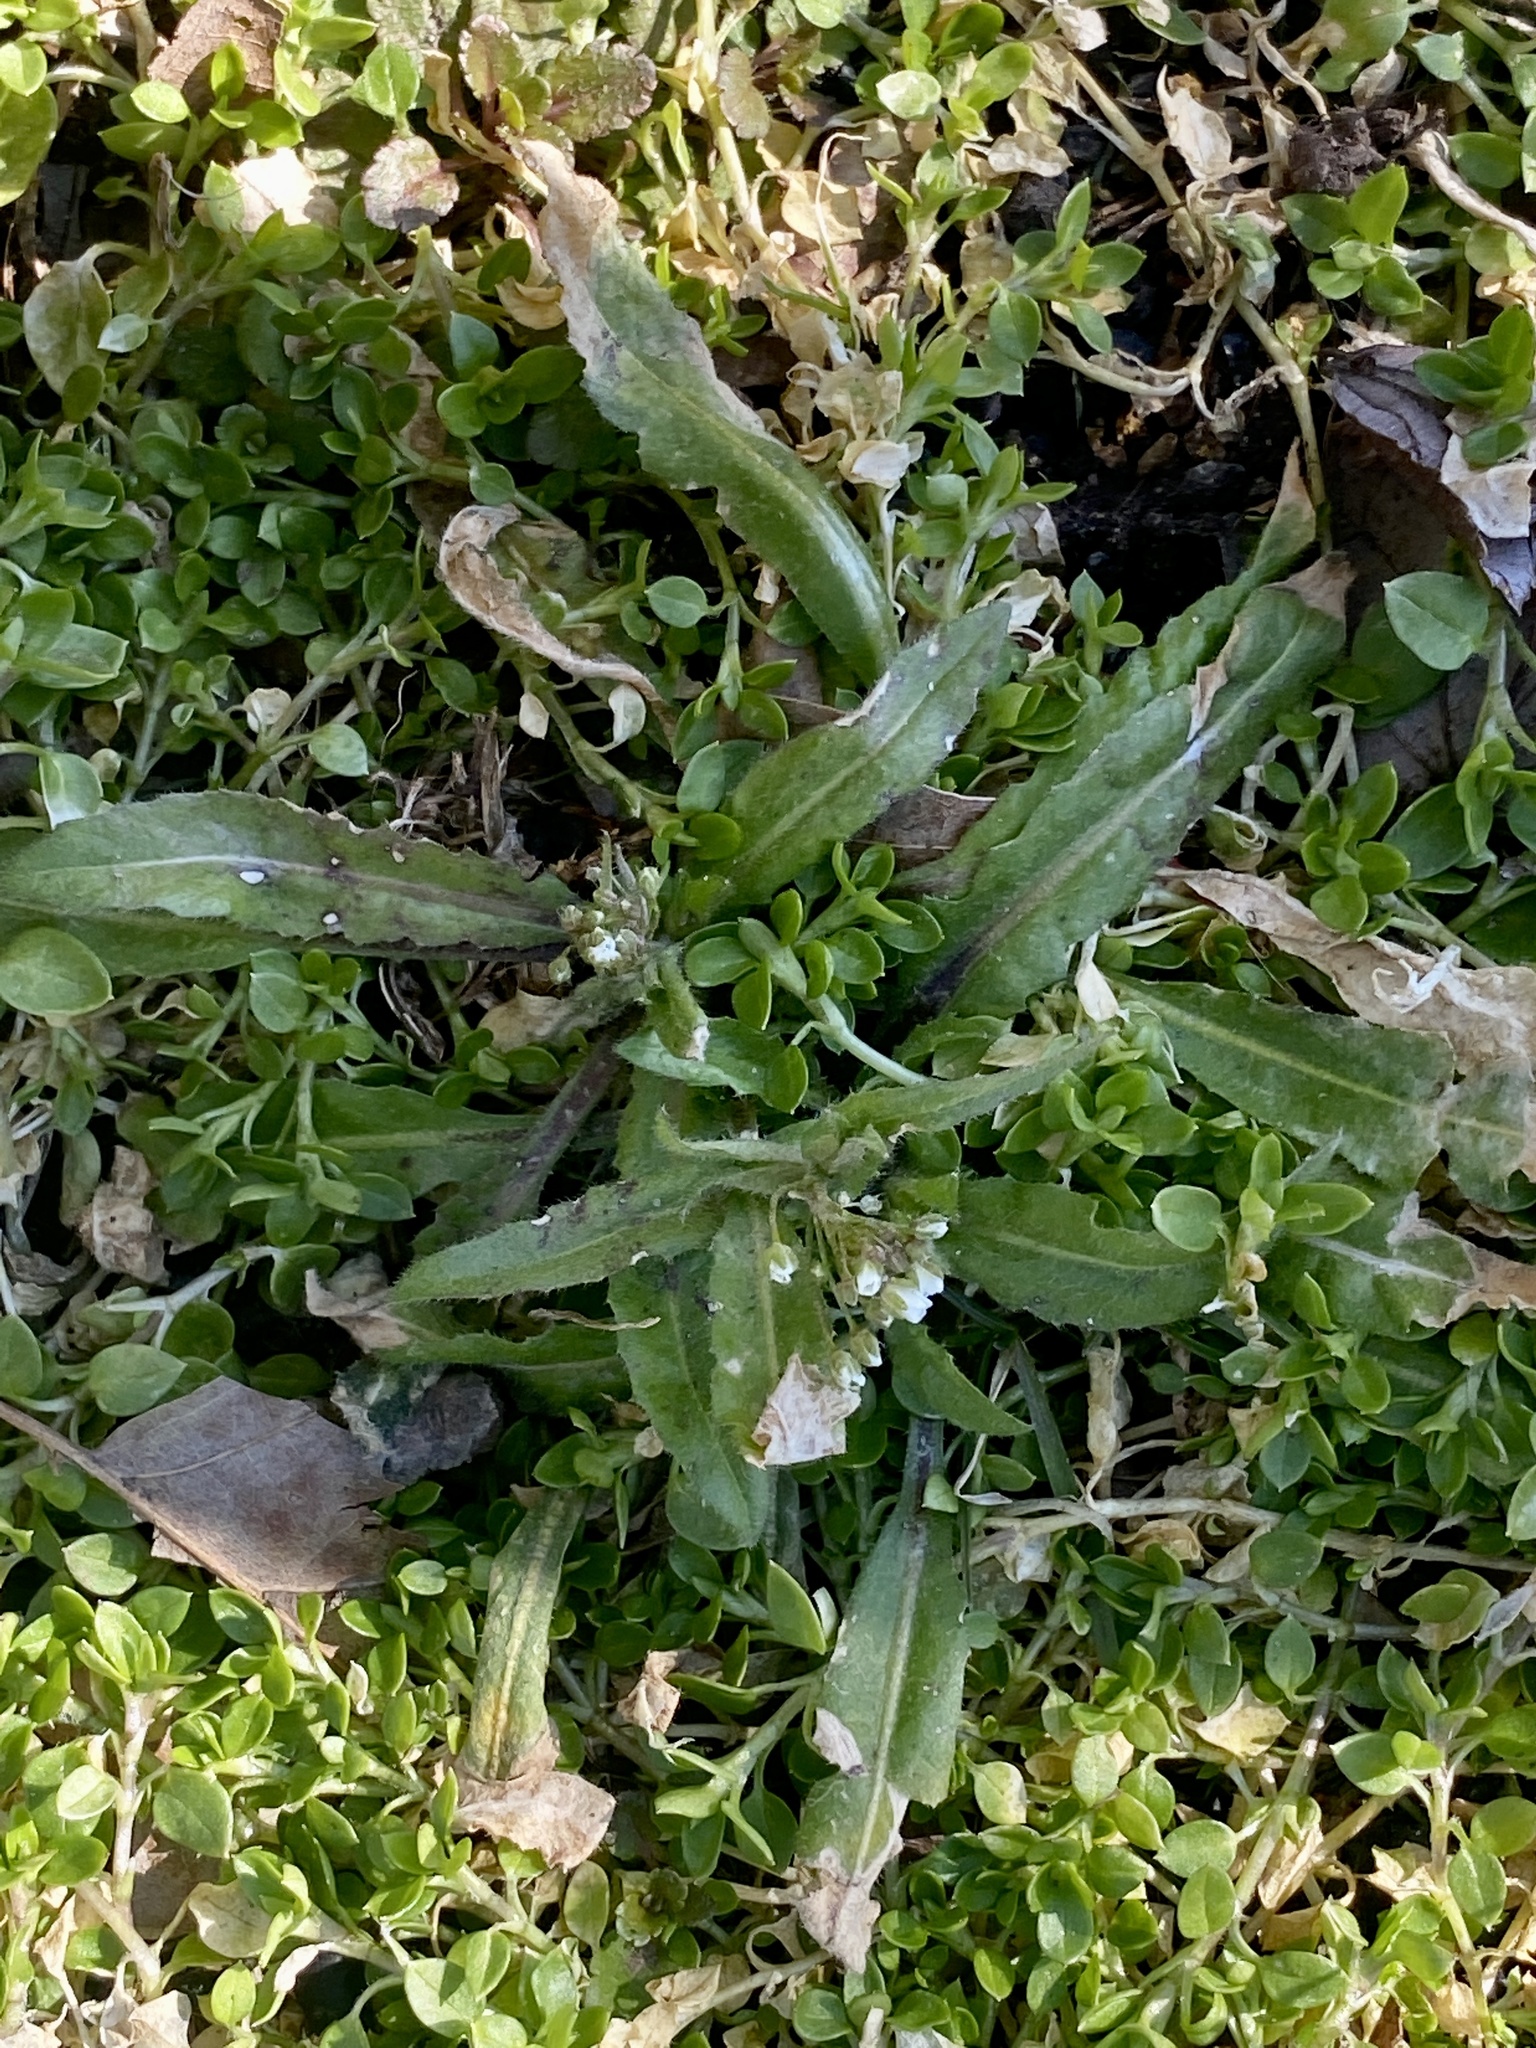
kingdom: Plantae
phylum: Tracheophyta
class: Magnoliopsida
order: Brassicales
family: Brassicaceae
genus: Capsella
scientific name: Capsella bursa-pastoris
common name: Shepherd's purse
